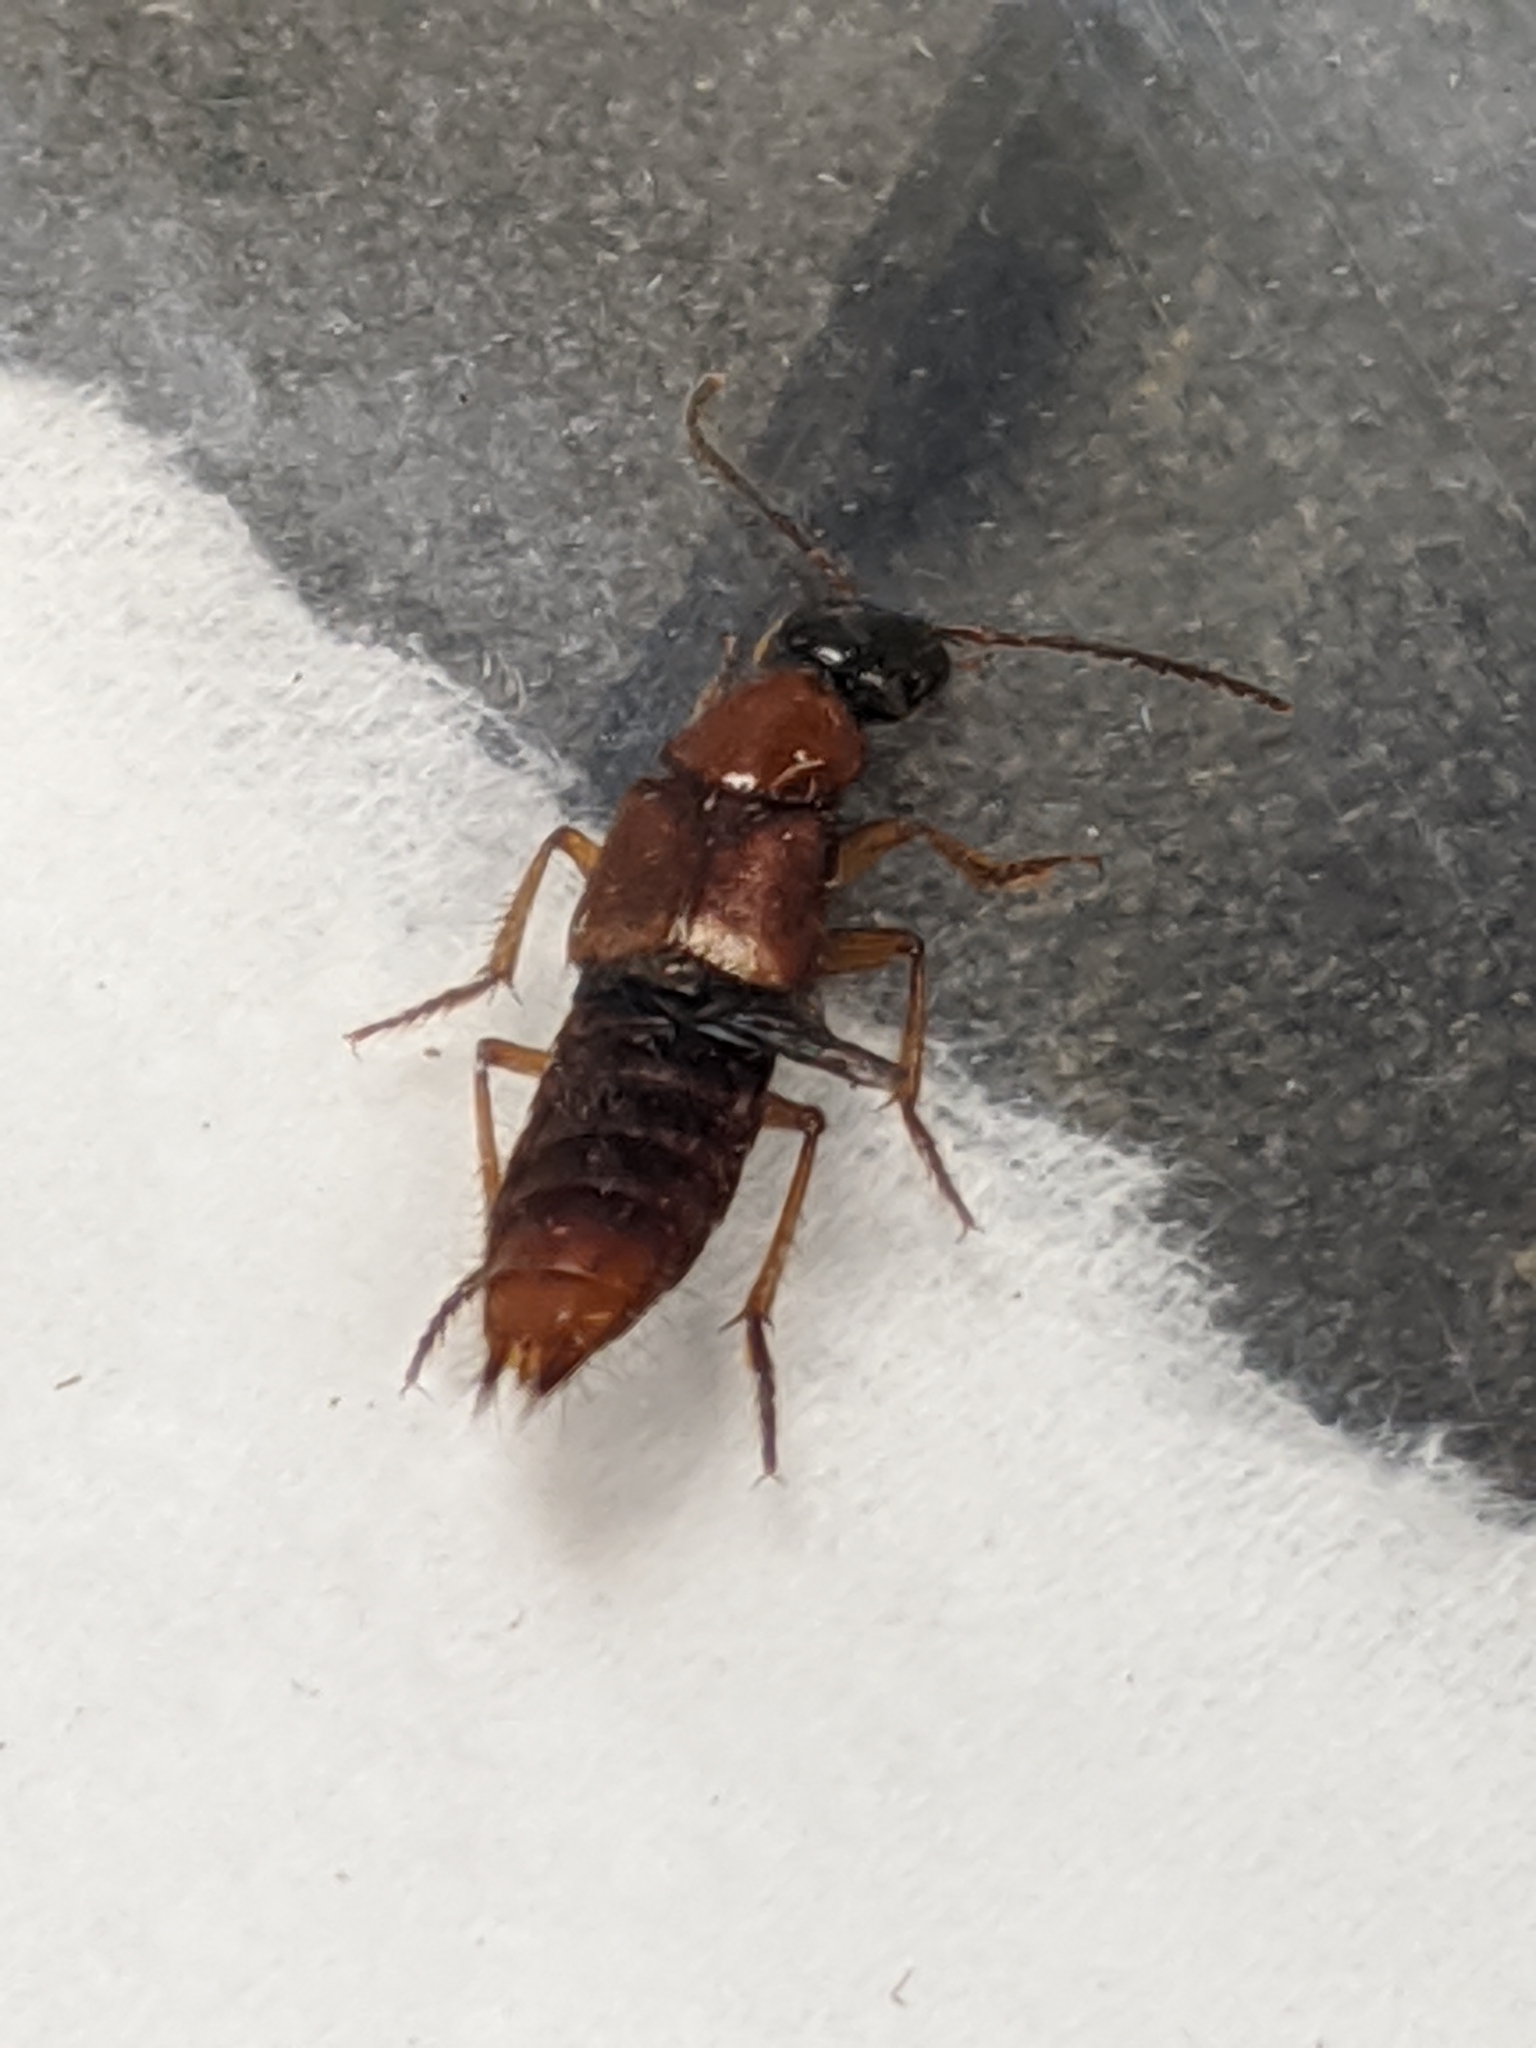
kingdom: Animalia
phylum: Arthropoda
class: Insecta
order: Coleoptera
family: Staphylinidae
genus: Taxiplagus
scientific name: Taxiplagus abnormalis
